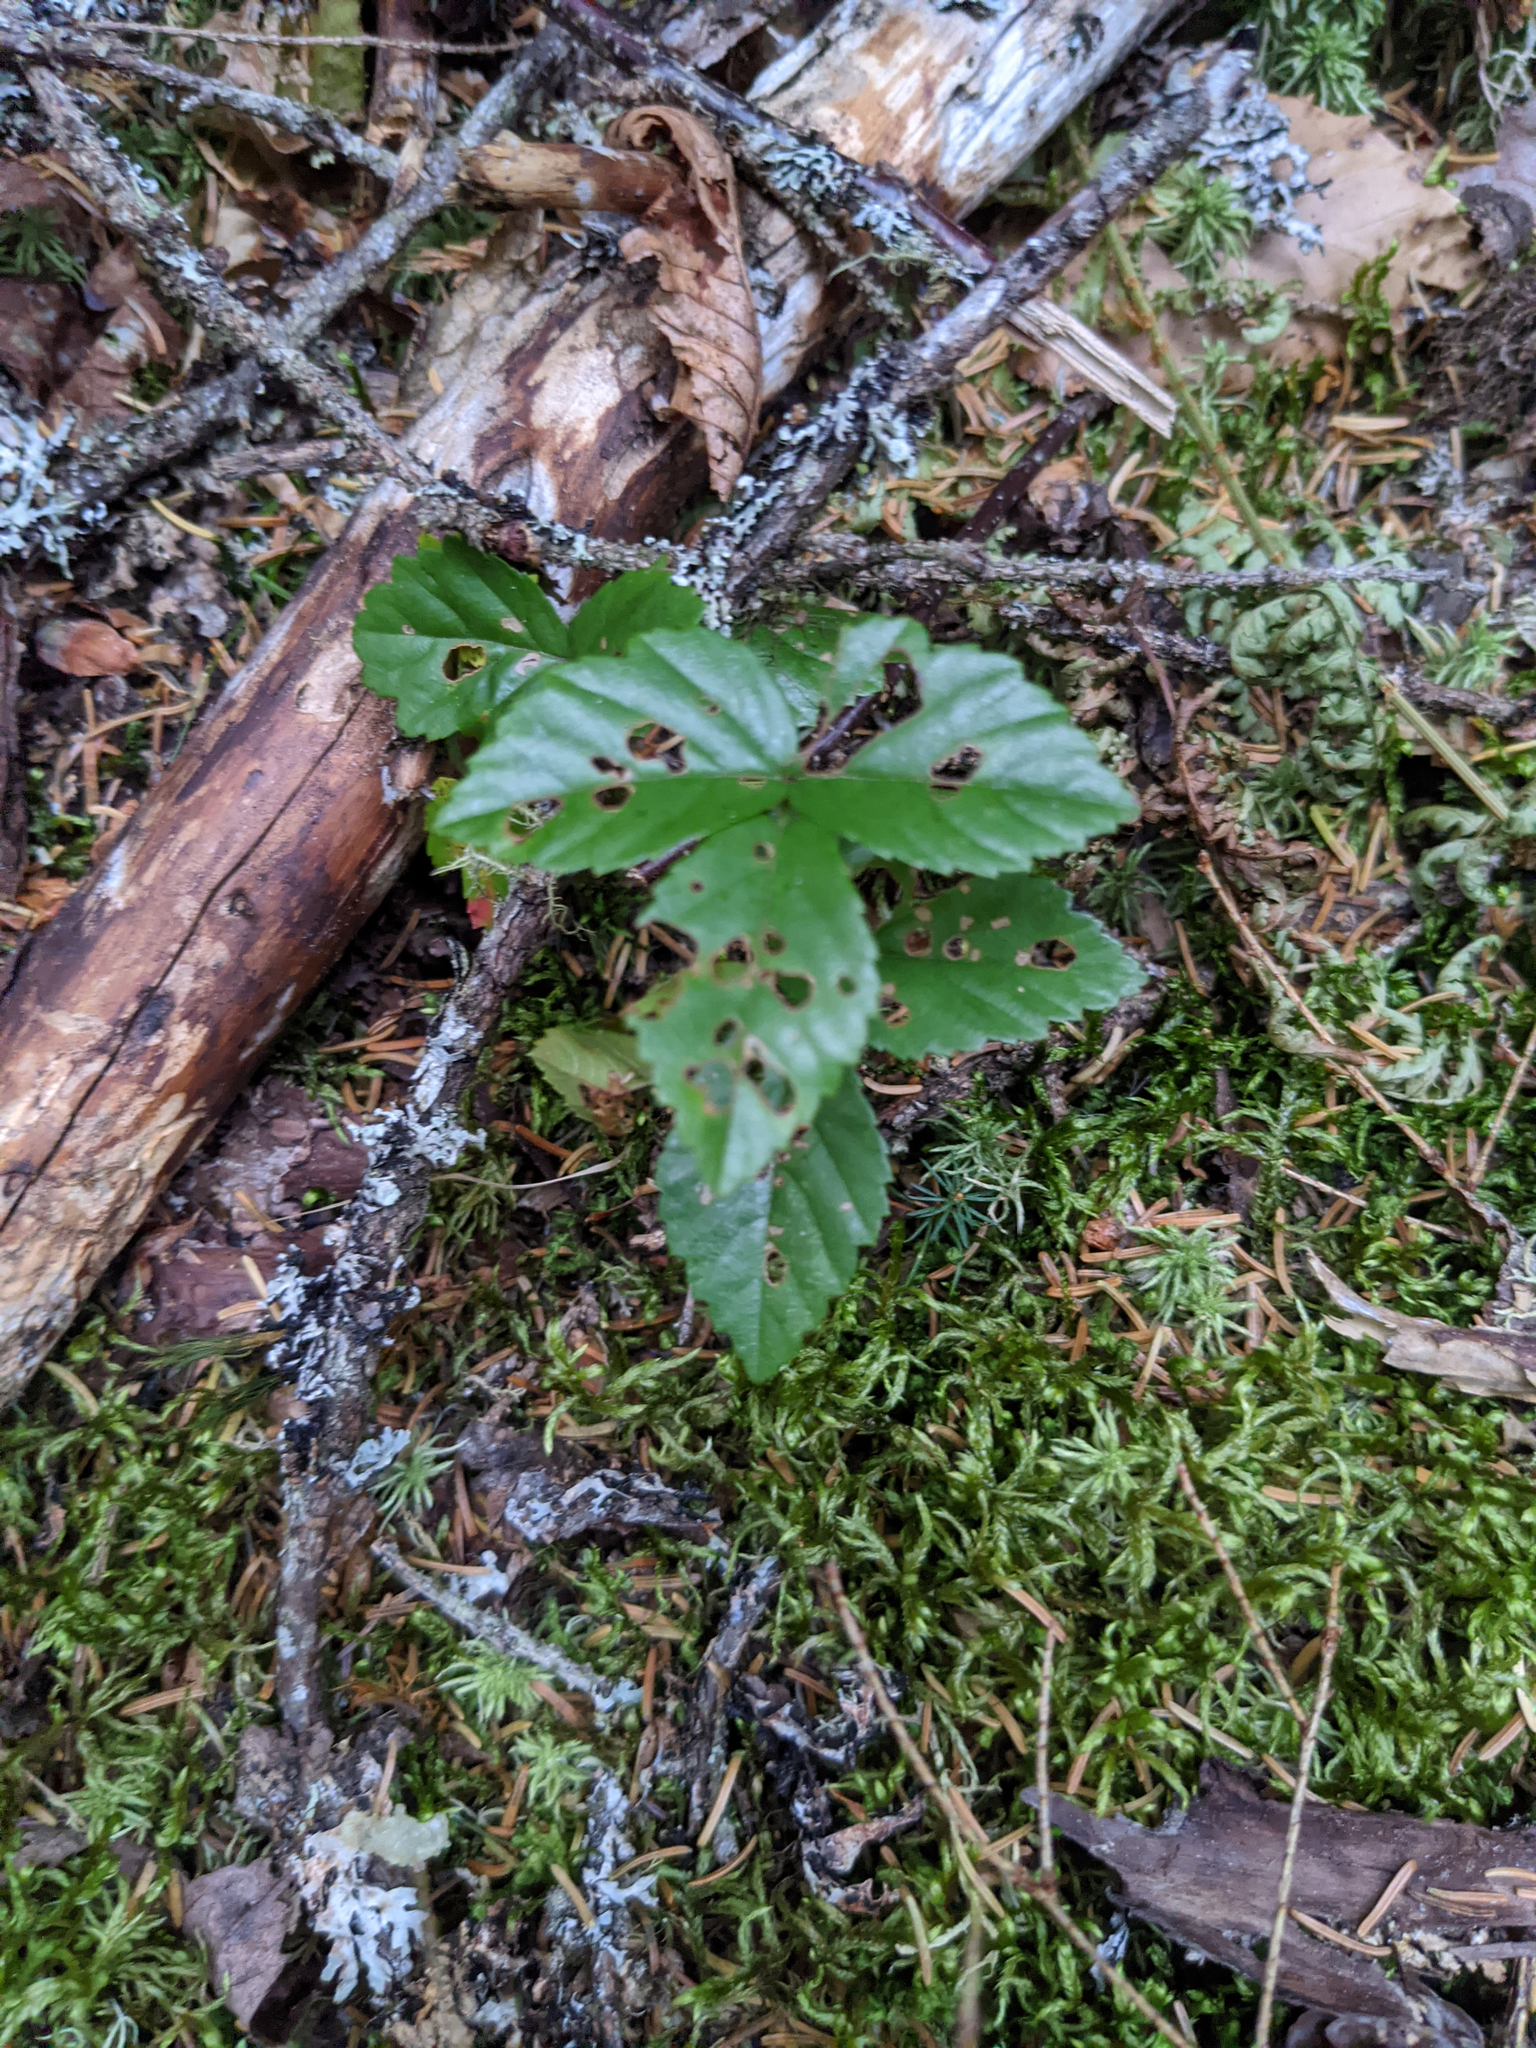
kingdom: Plantae
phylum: Tracheophyta
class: Magnoliopsida
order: Rosales
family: Rosaceae
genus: Rubus
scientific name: Rubus hispidus
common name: Running blackberry
